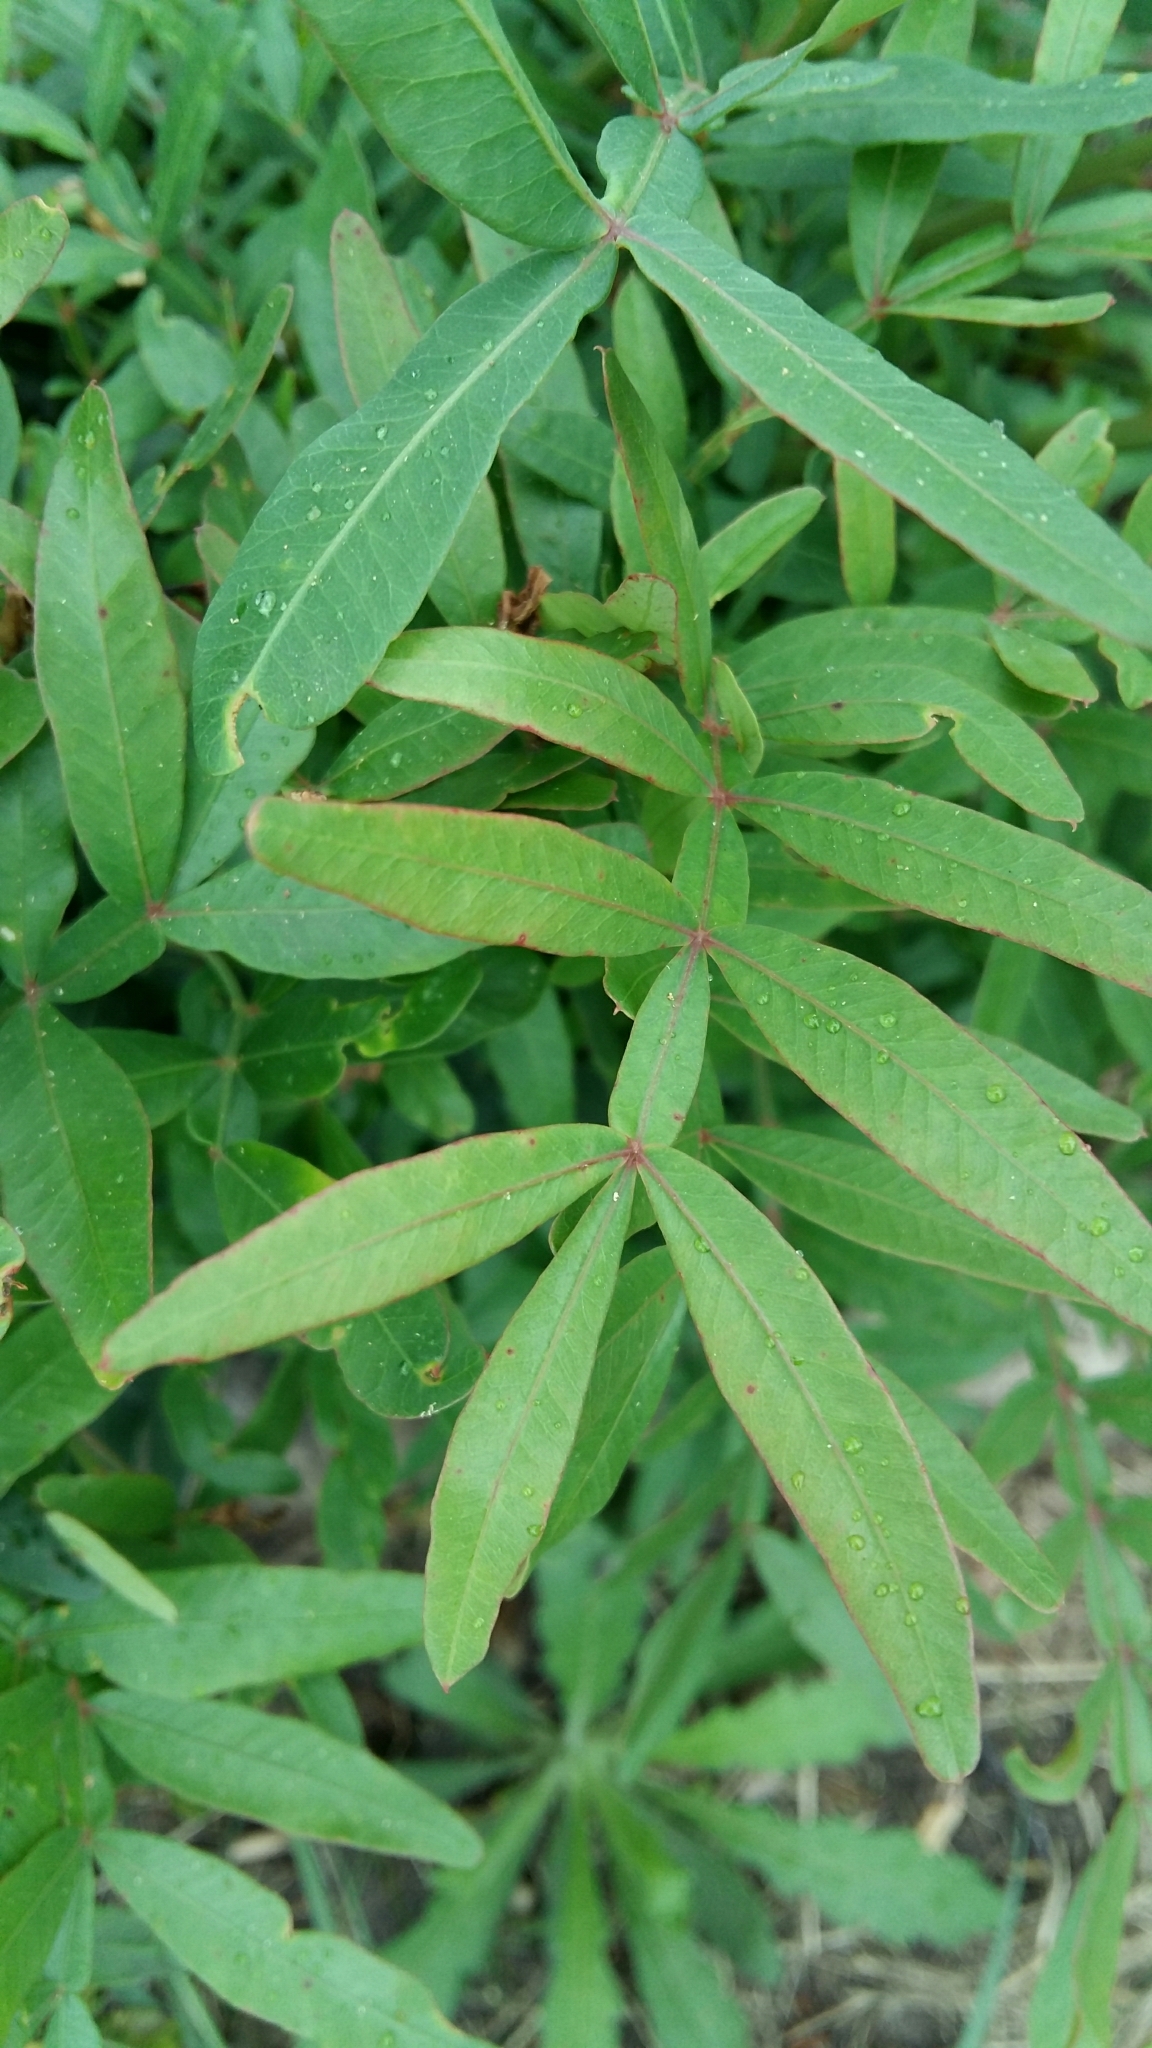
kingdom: Plantae
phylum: Tracheophyta
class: Magnoliopsida
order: Sapindales
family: Anacardiaceae
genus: Loxostylis
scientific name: Loxostylis alata
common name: Wild peppertree
